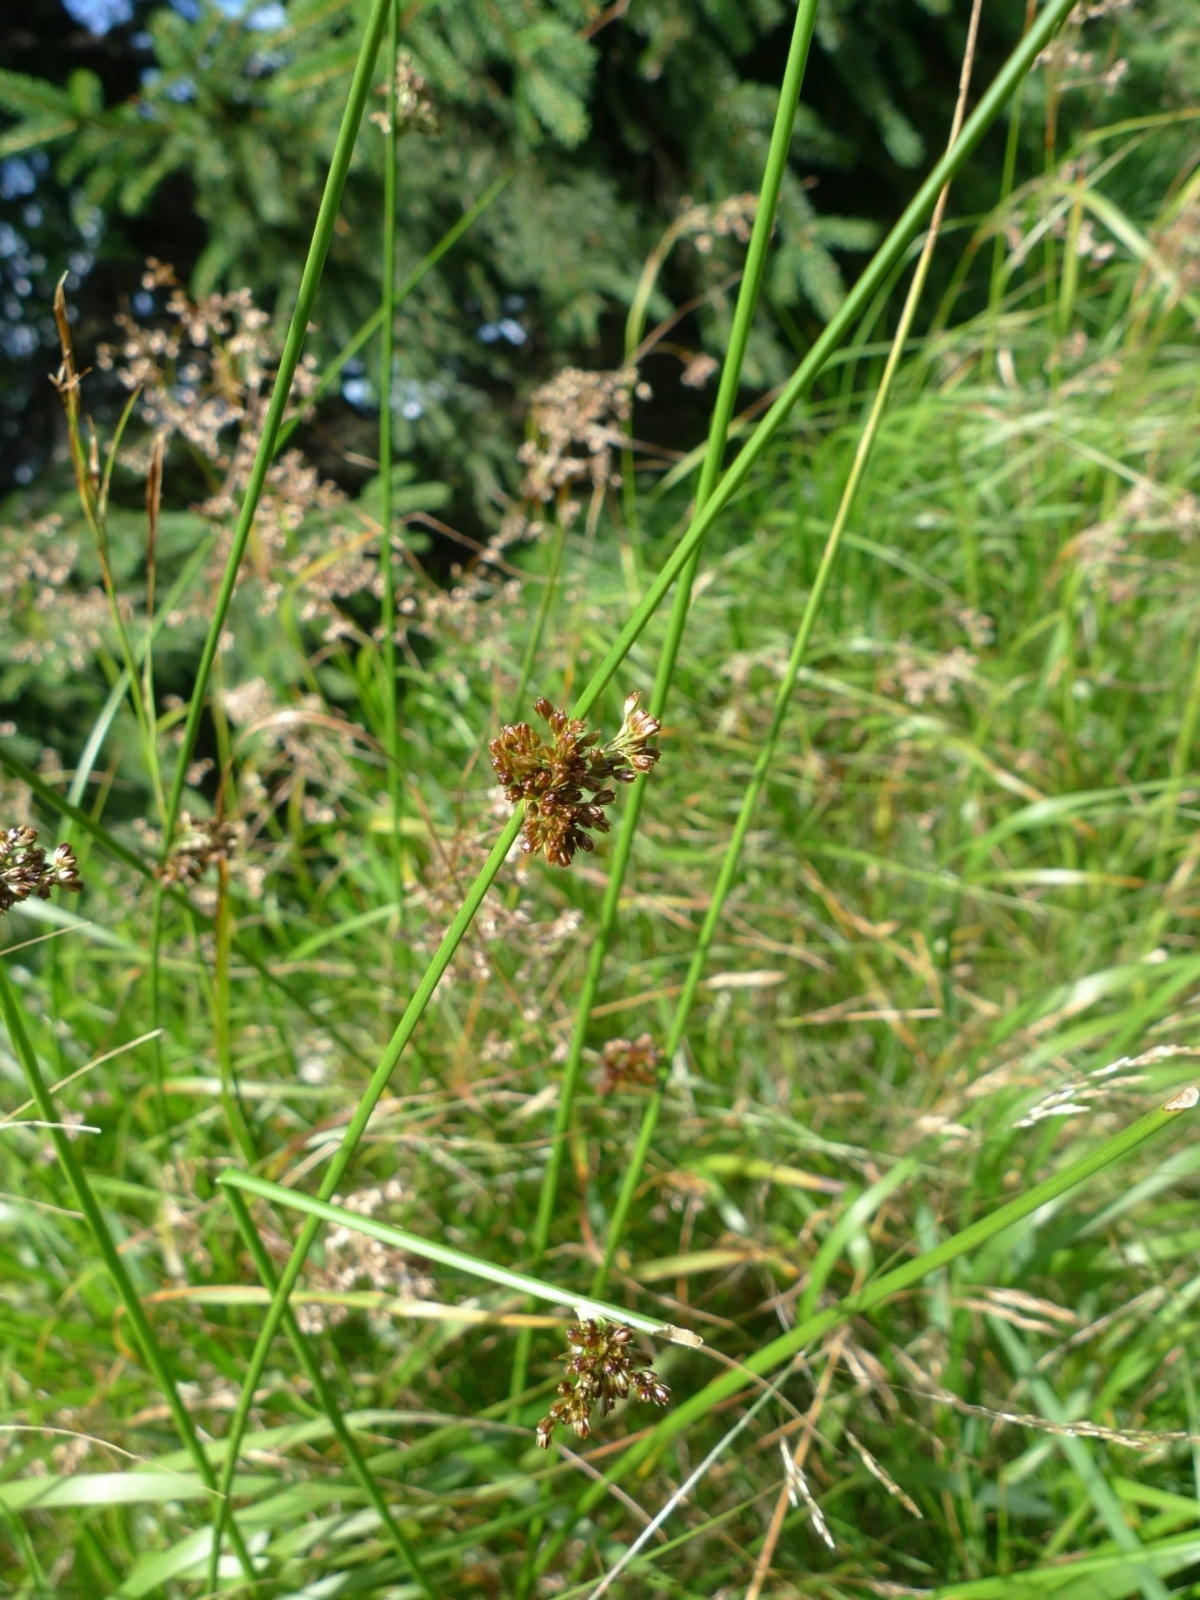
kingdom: Plantae
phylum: Tracheophyta
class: Liliopsida
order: Poales
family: Juncaceae
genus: Juncus
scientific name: Juncus effusus
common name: Soft rush
